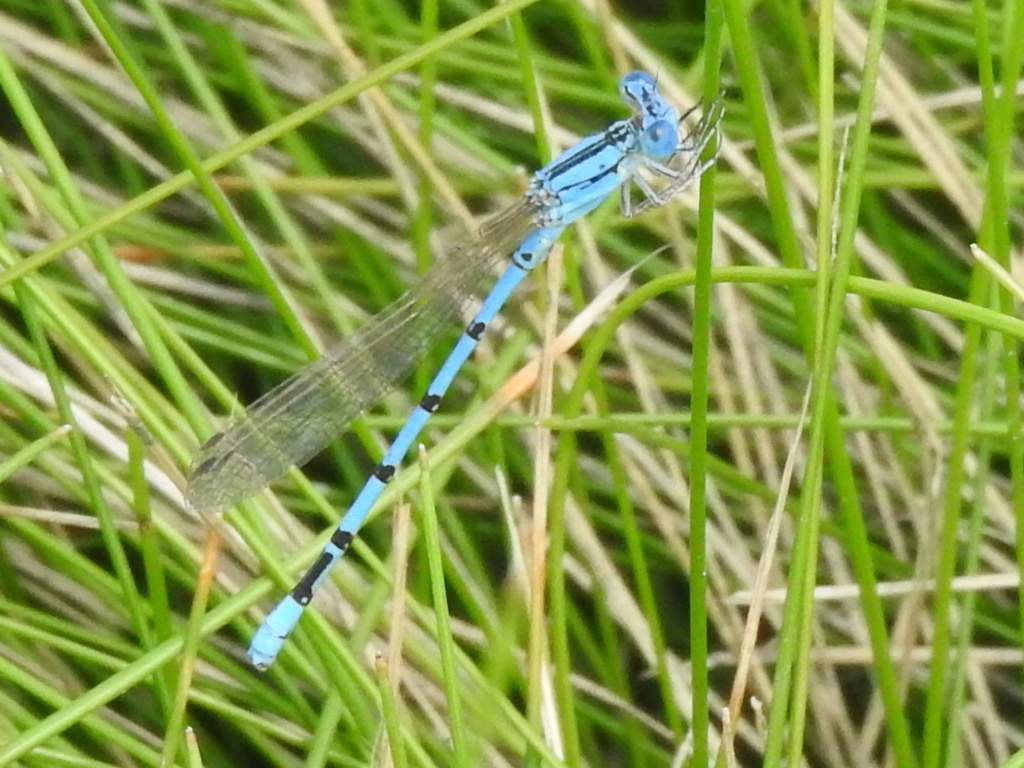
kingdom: Animalia
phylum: Arthropoda
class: Insecta
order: Odonata
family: Coenagrionidae
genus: Argia
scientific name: Argia nahuana
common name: Aztec dancer
